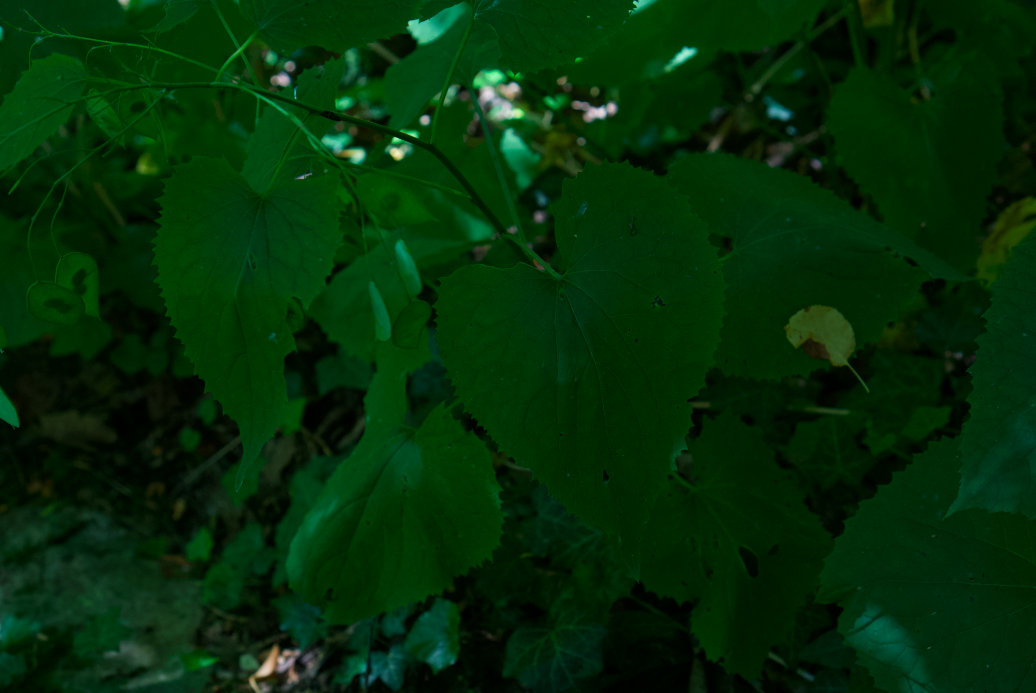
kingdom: Plantae
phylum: Tracheophyta
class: Magnoliopsida
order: Brassicales
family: Brassicaceae
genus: Lunaria
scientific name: Lunaria rediviva
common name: Perennial honesty
